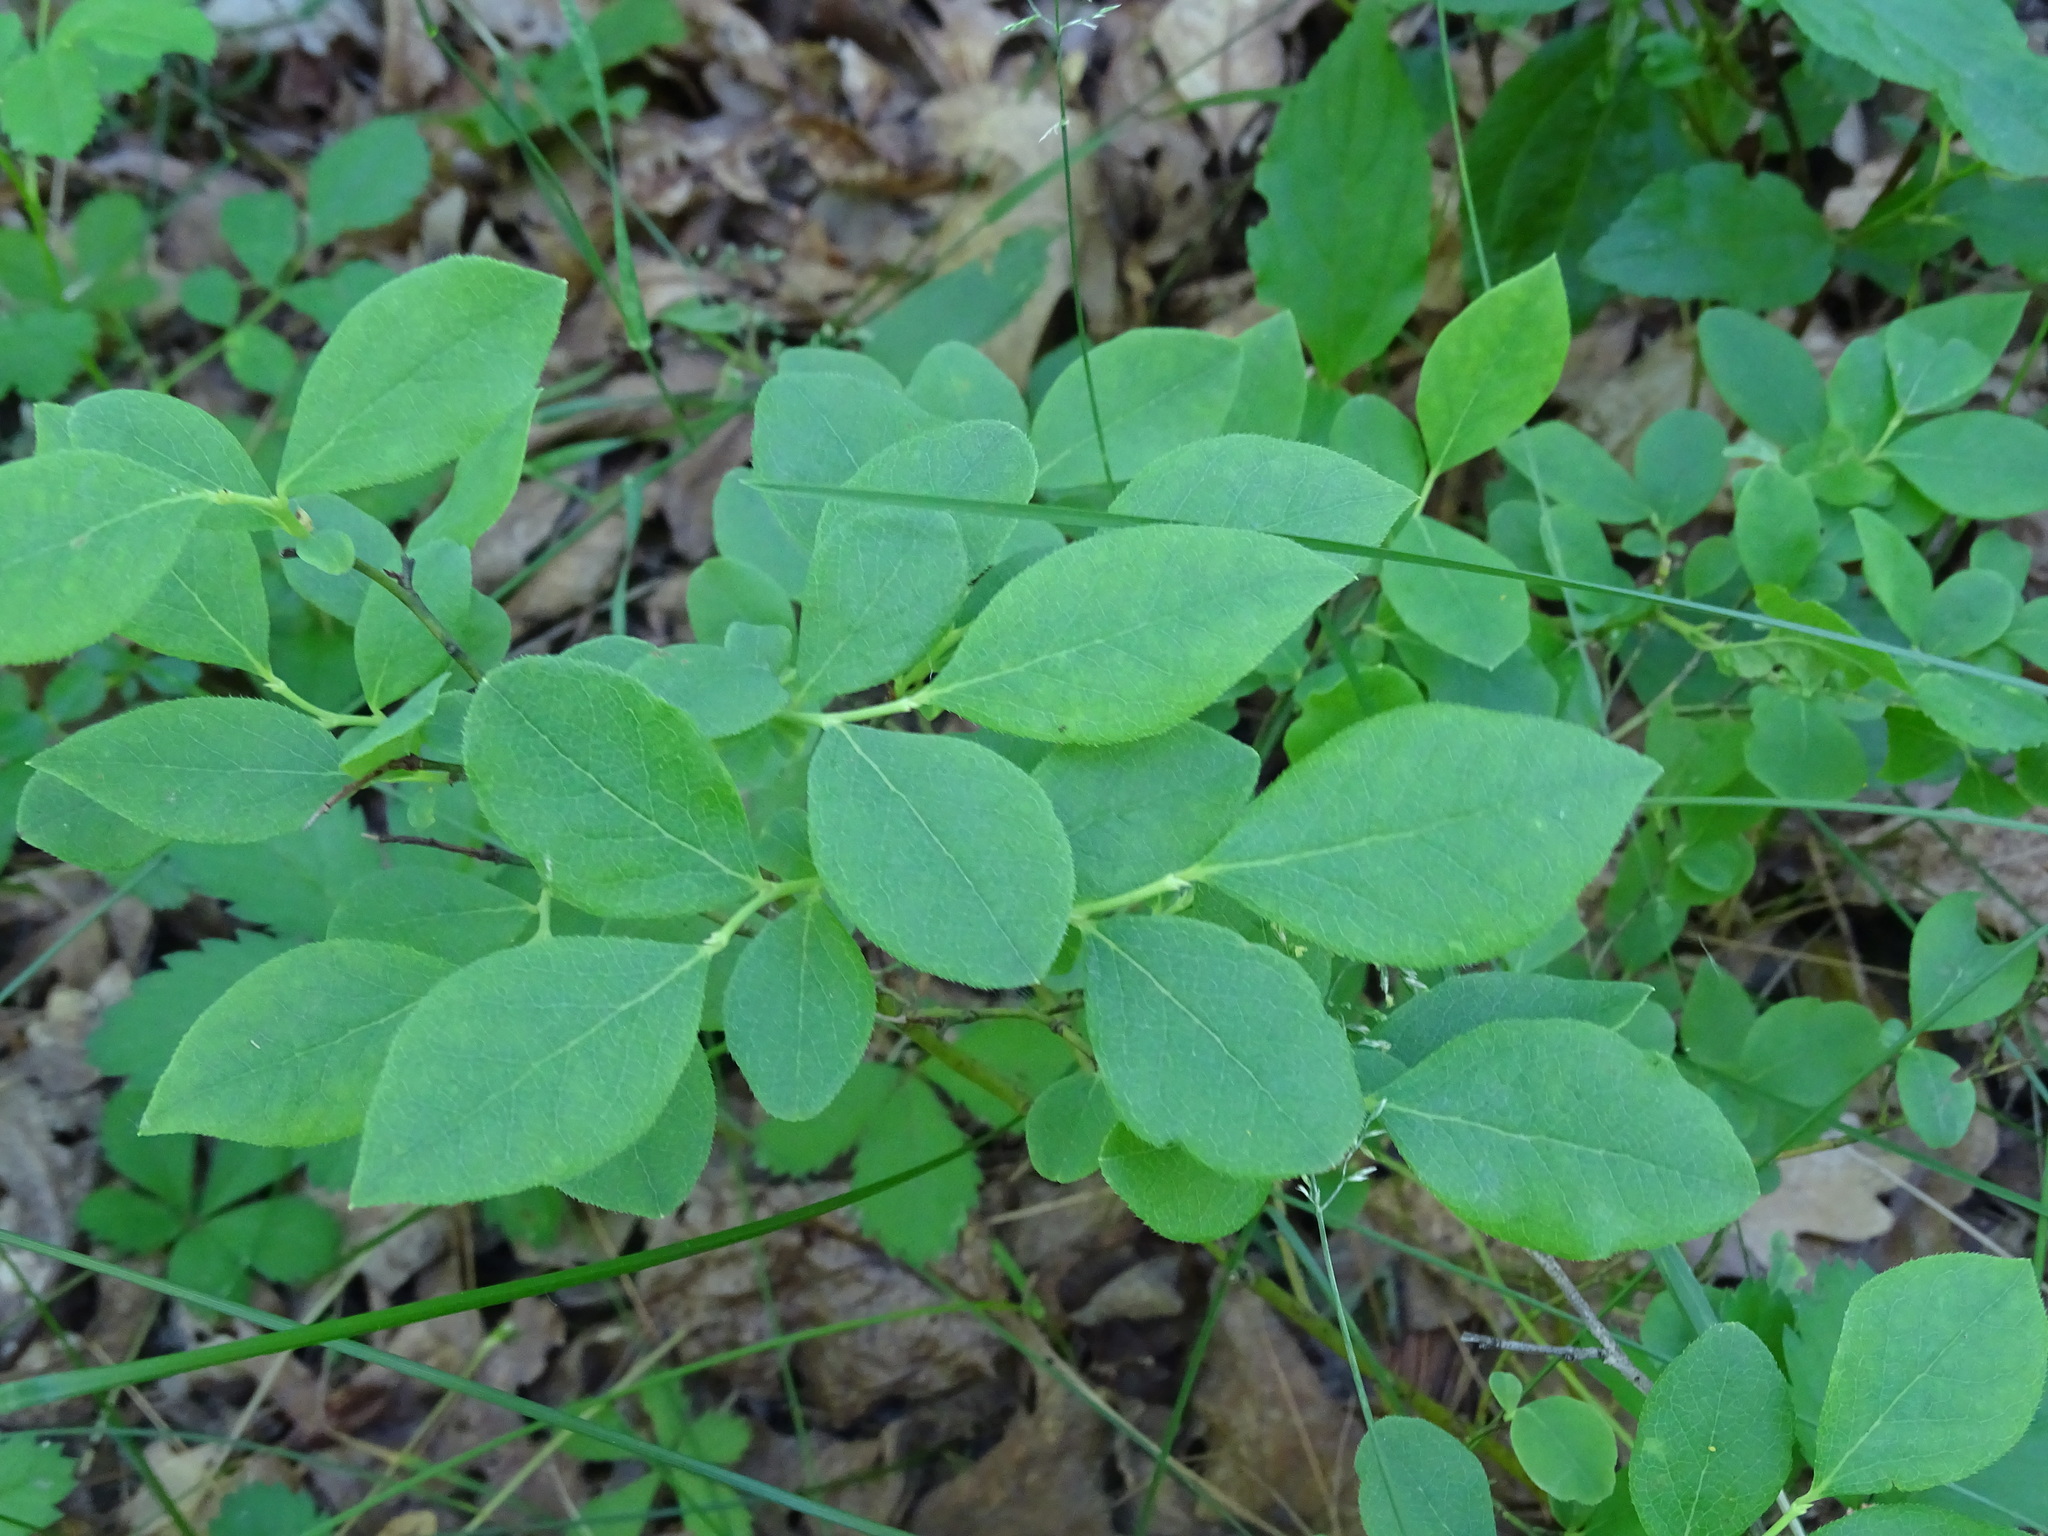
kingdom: Plantae
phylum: Tracheophyta
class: Magnoliopsida
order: Ericales
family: Ericaceae
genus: Vaccinium
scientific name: Vaccinium pallidum
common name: Blue ridge blueberry
